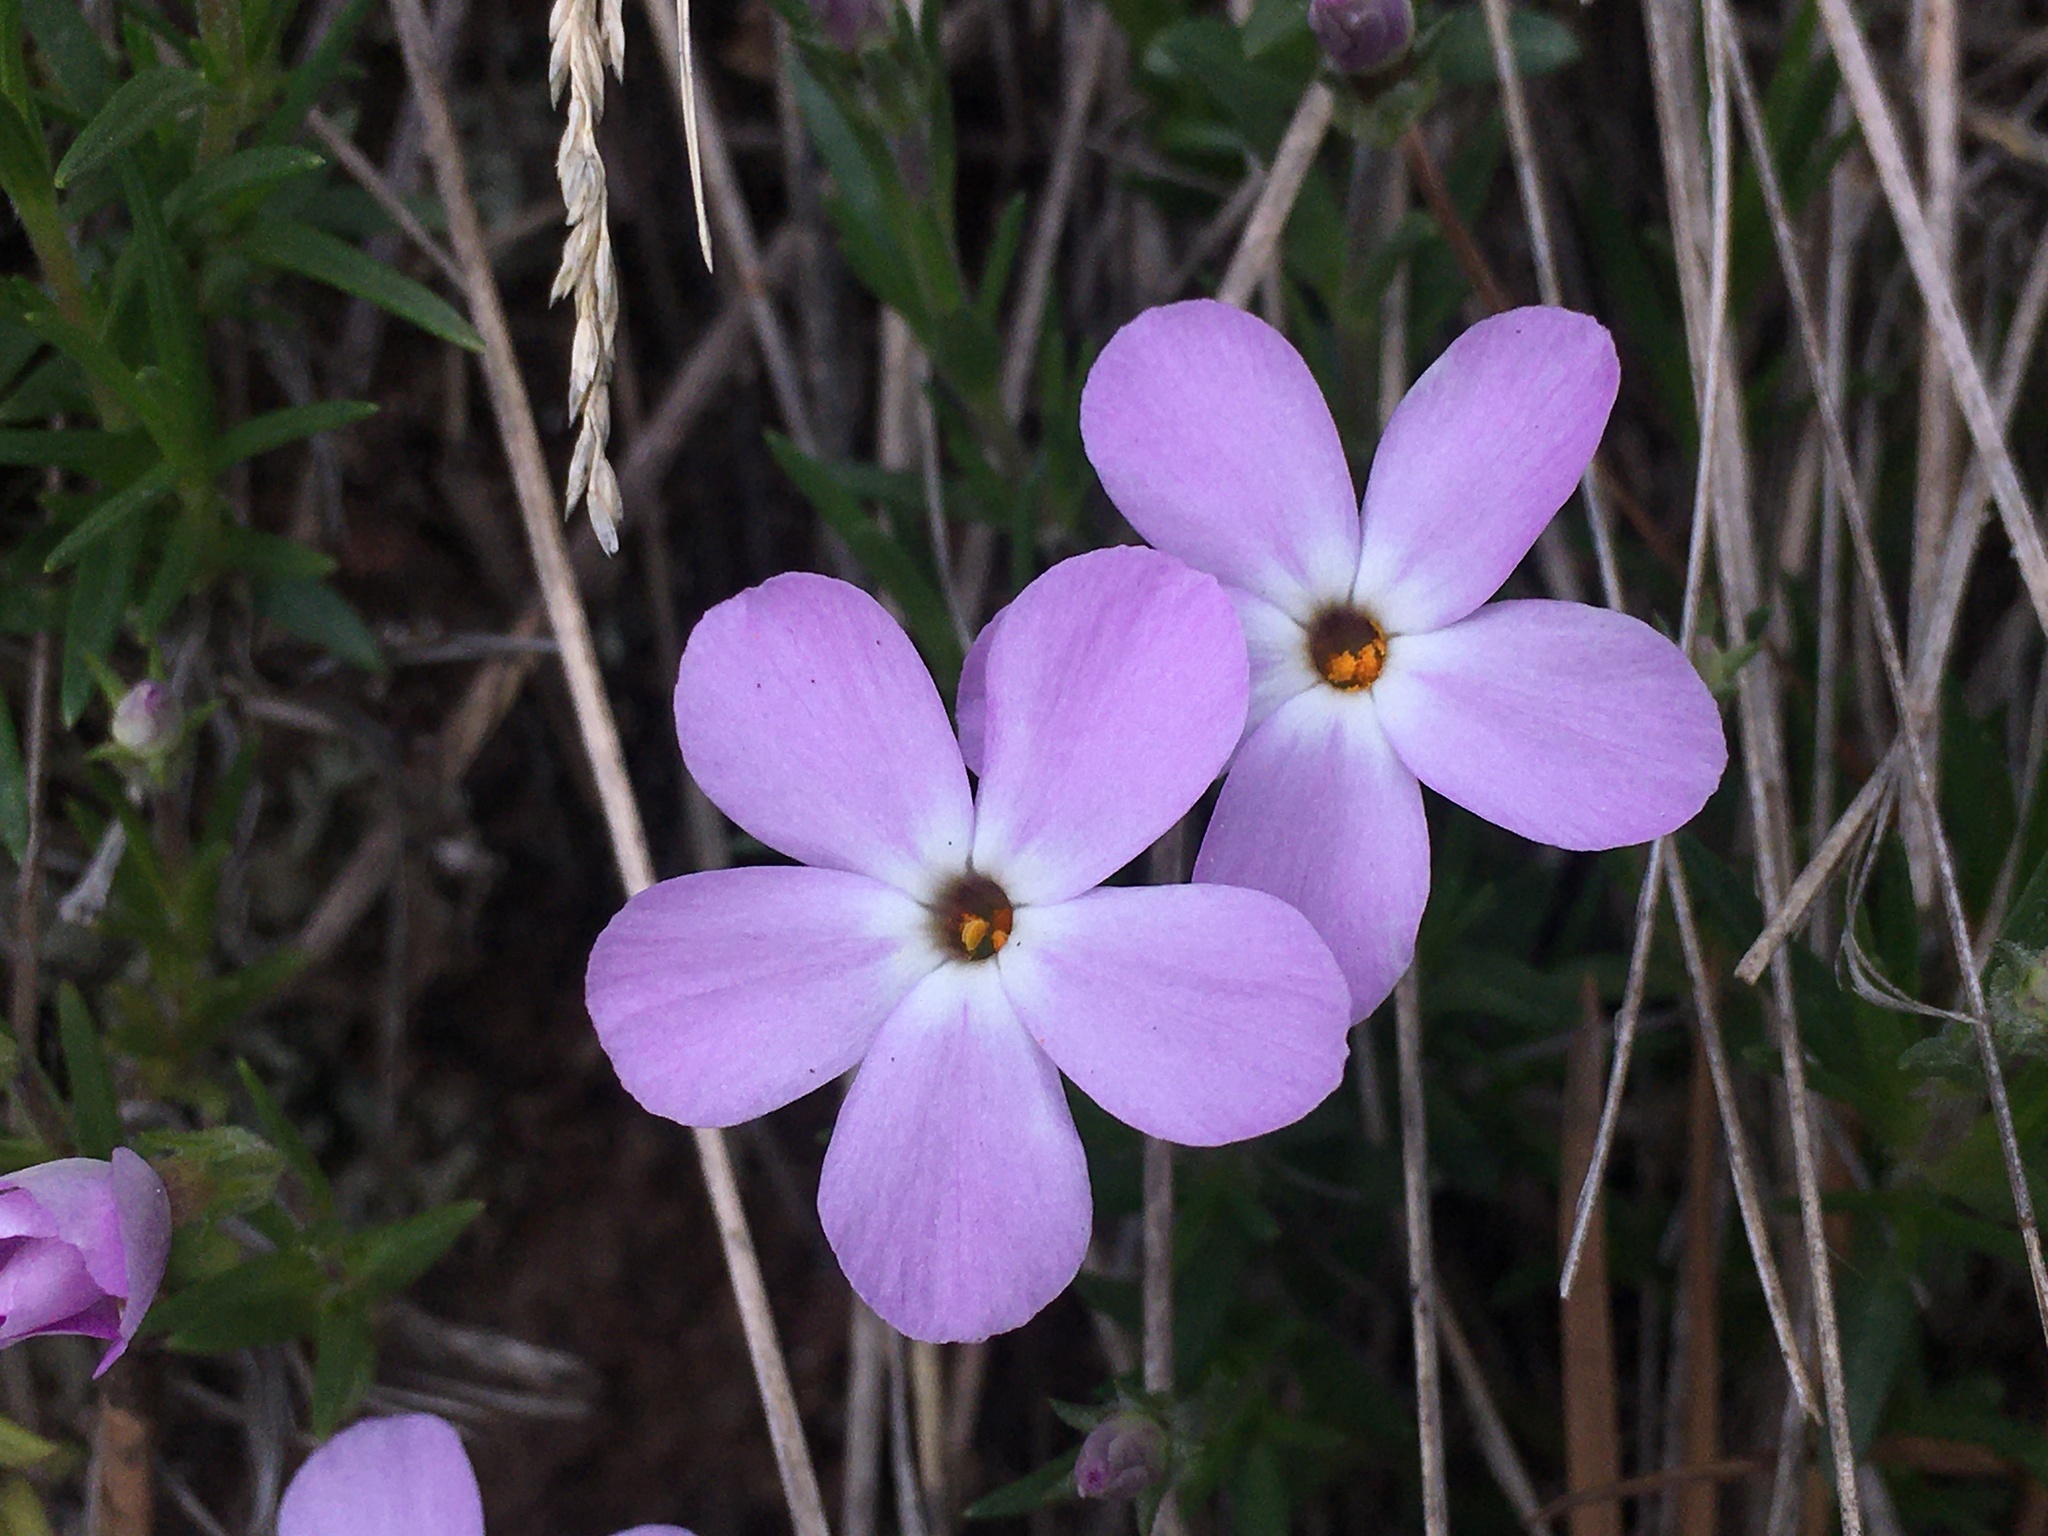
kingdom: Plantae
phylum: Tracheophyta
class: Magnoliopsida
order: Ericales
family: Polemoniaceae
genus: Phlox
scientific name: Phlox multiflora
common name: Rocky mountain phlox
